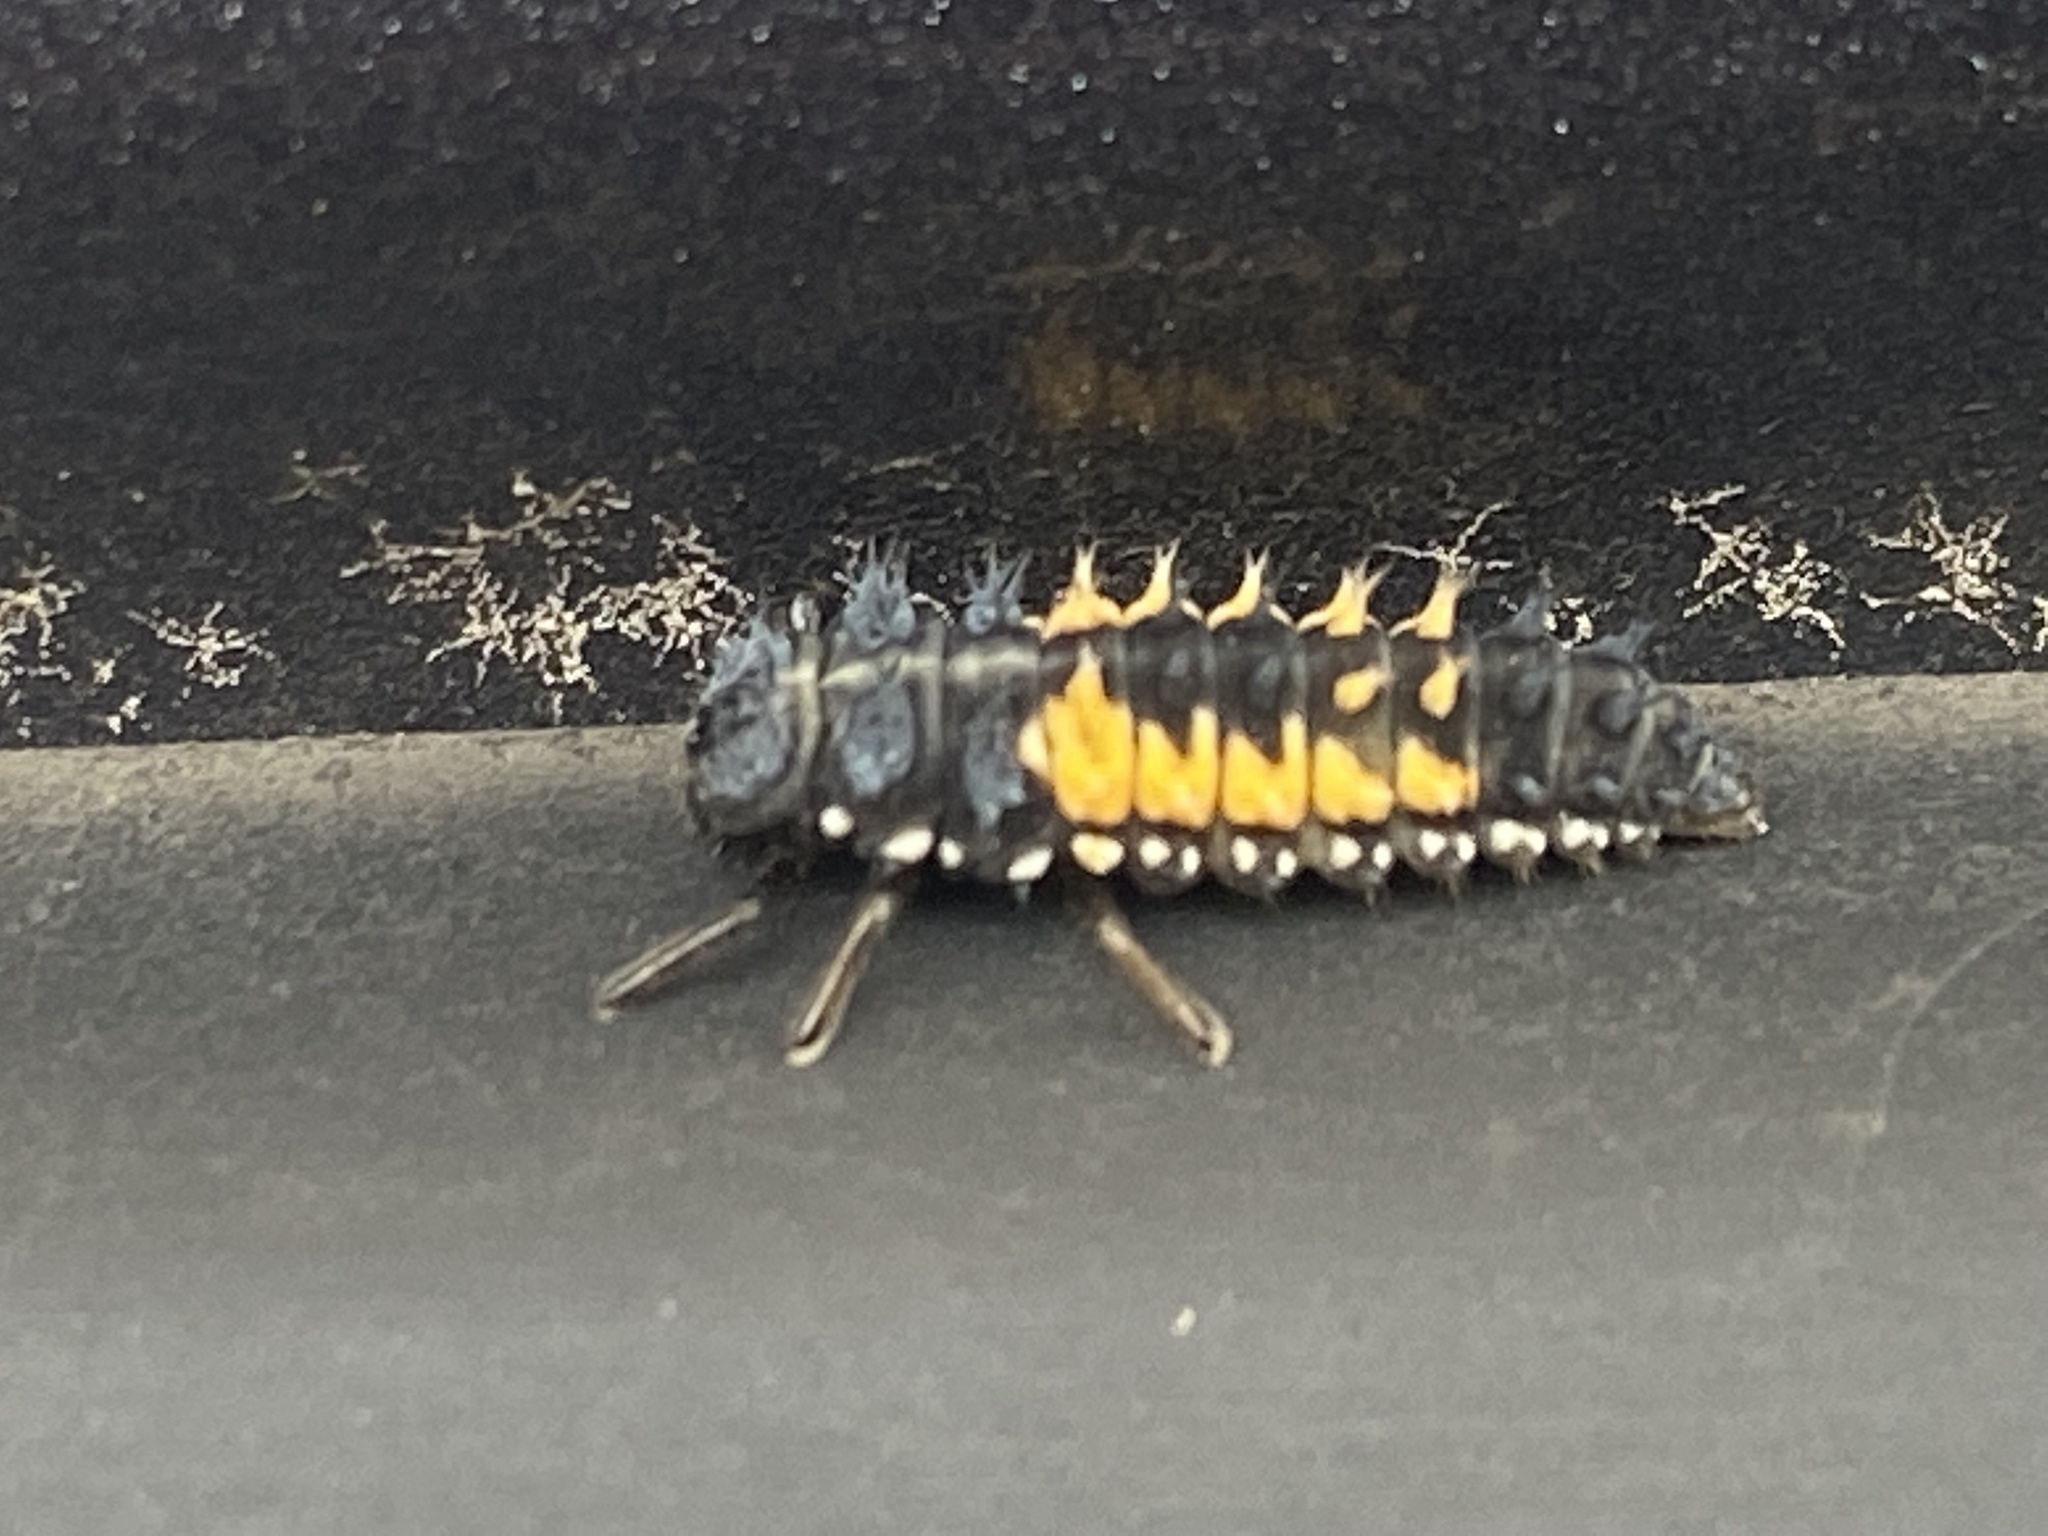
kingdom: Animalia
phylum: Arthropoda
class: Insecta
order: Coleoptera
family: Coccinellidae
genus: Harmonia
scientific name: Harmonia axyridis
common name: Harlequin ladybird
